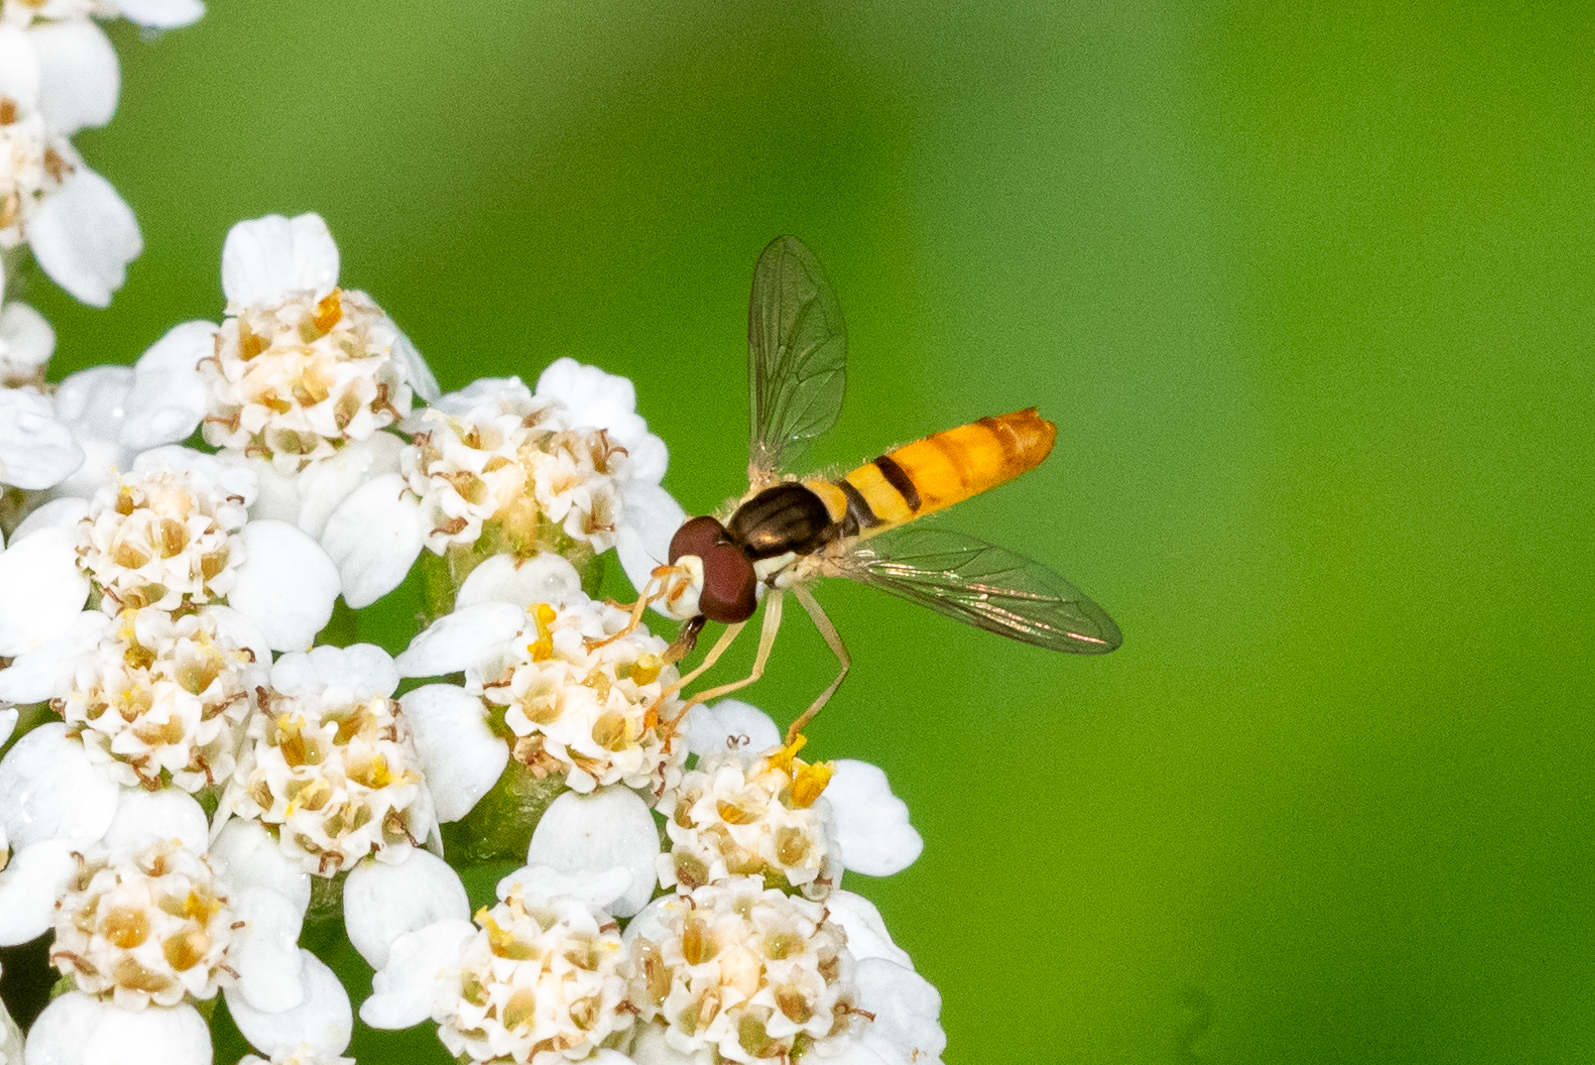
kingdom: Animalia
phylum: Arthropoda
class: Insecta
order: Diptera
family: Syrphidae
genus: Sphaerophoria
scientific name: Sphaerophoria contigua
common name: Tufted globetail
